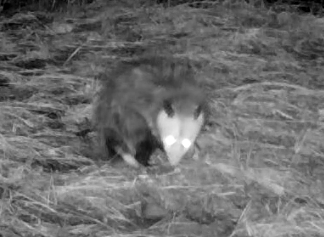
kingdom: Animalia
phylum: Chordata
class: Mammalia
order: Didelphimorphia
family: Didelphidae
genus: Didelphis
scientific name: Didelphis virginiana
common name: Virginia opossum
